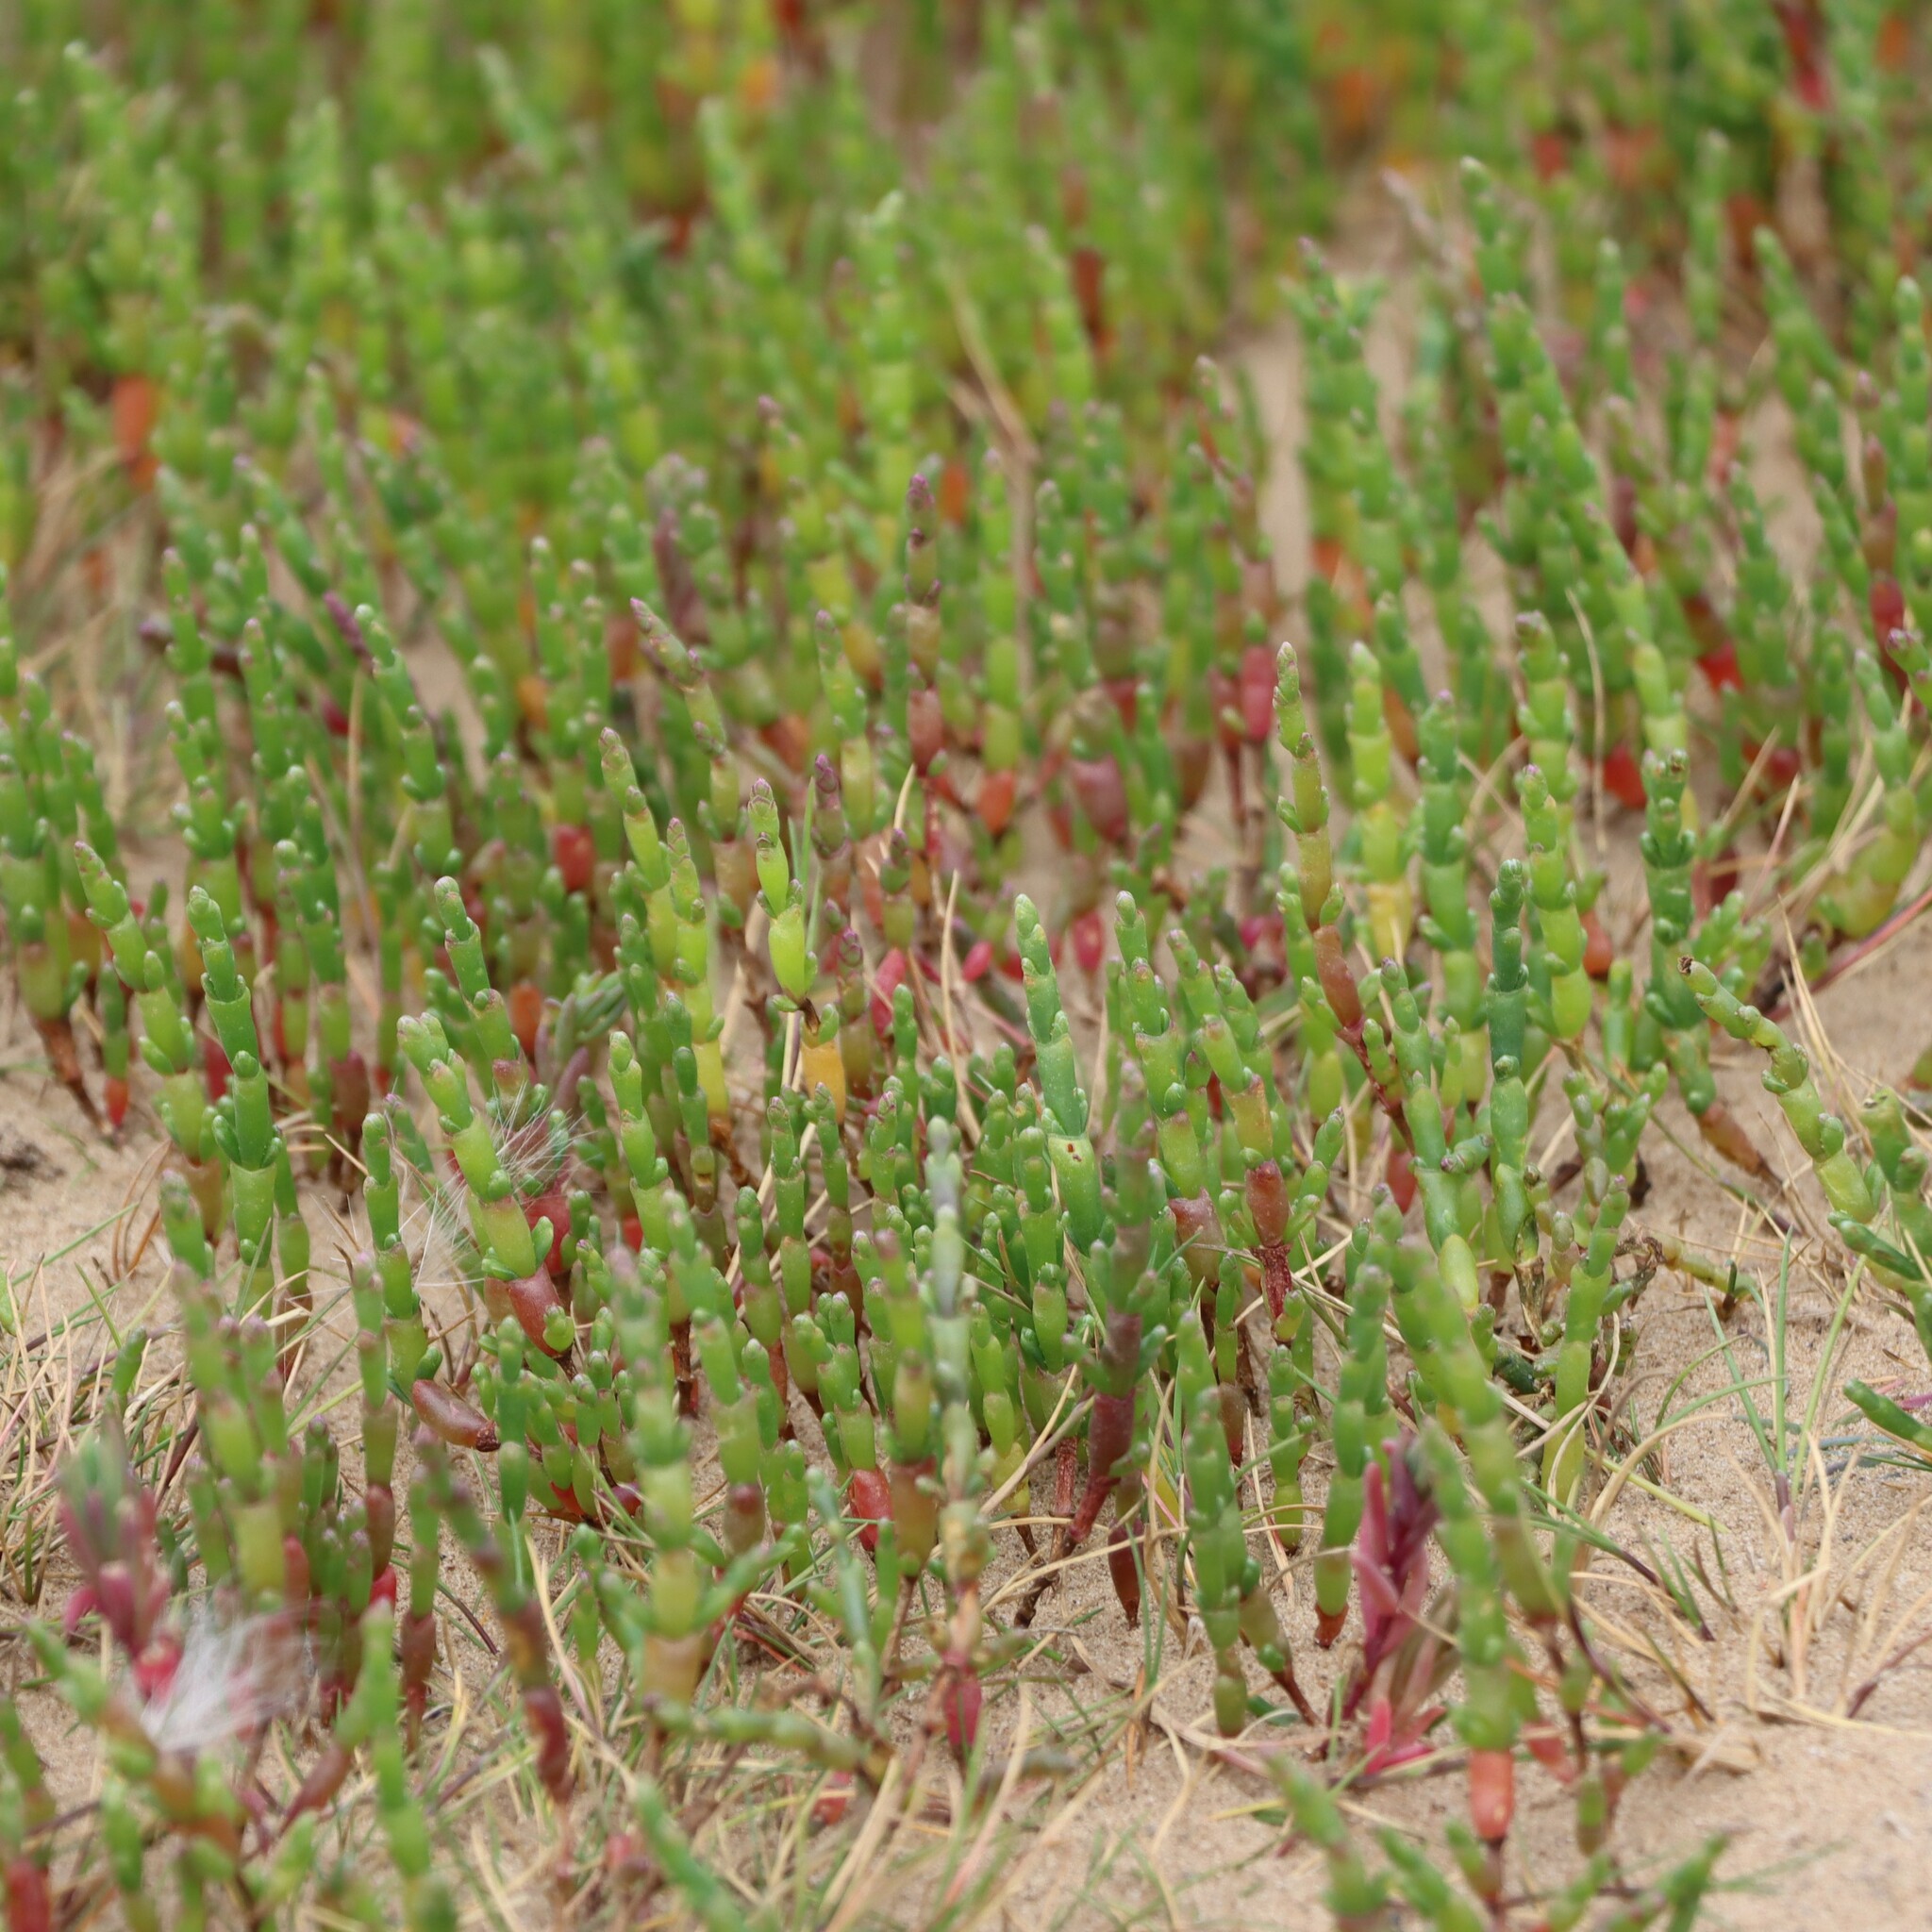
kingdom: Plantae
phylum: Tracheophyta
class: Magnoliopsida
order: Caryophyllales
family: Amaranthaceae
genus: Salicornia
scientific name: Salicornia europaea
